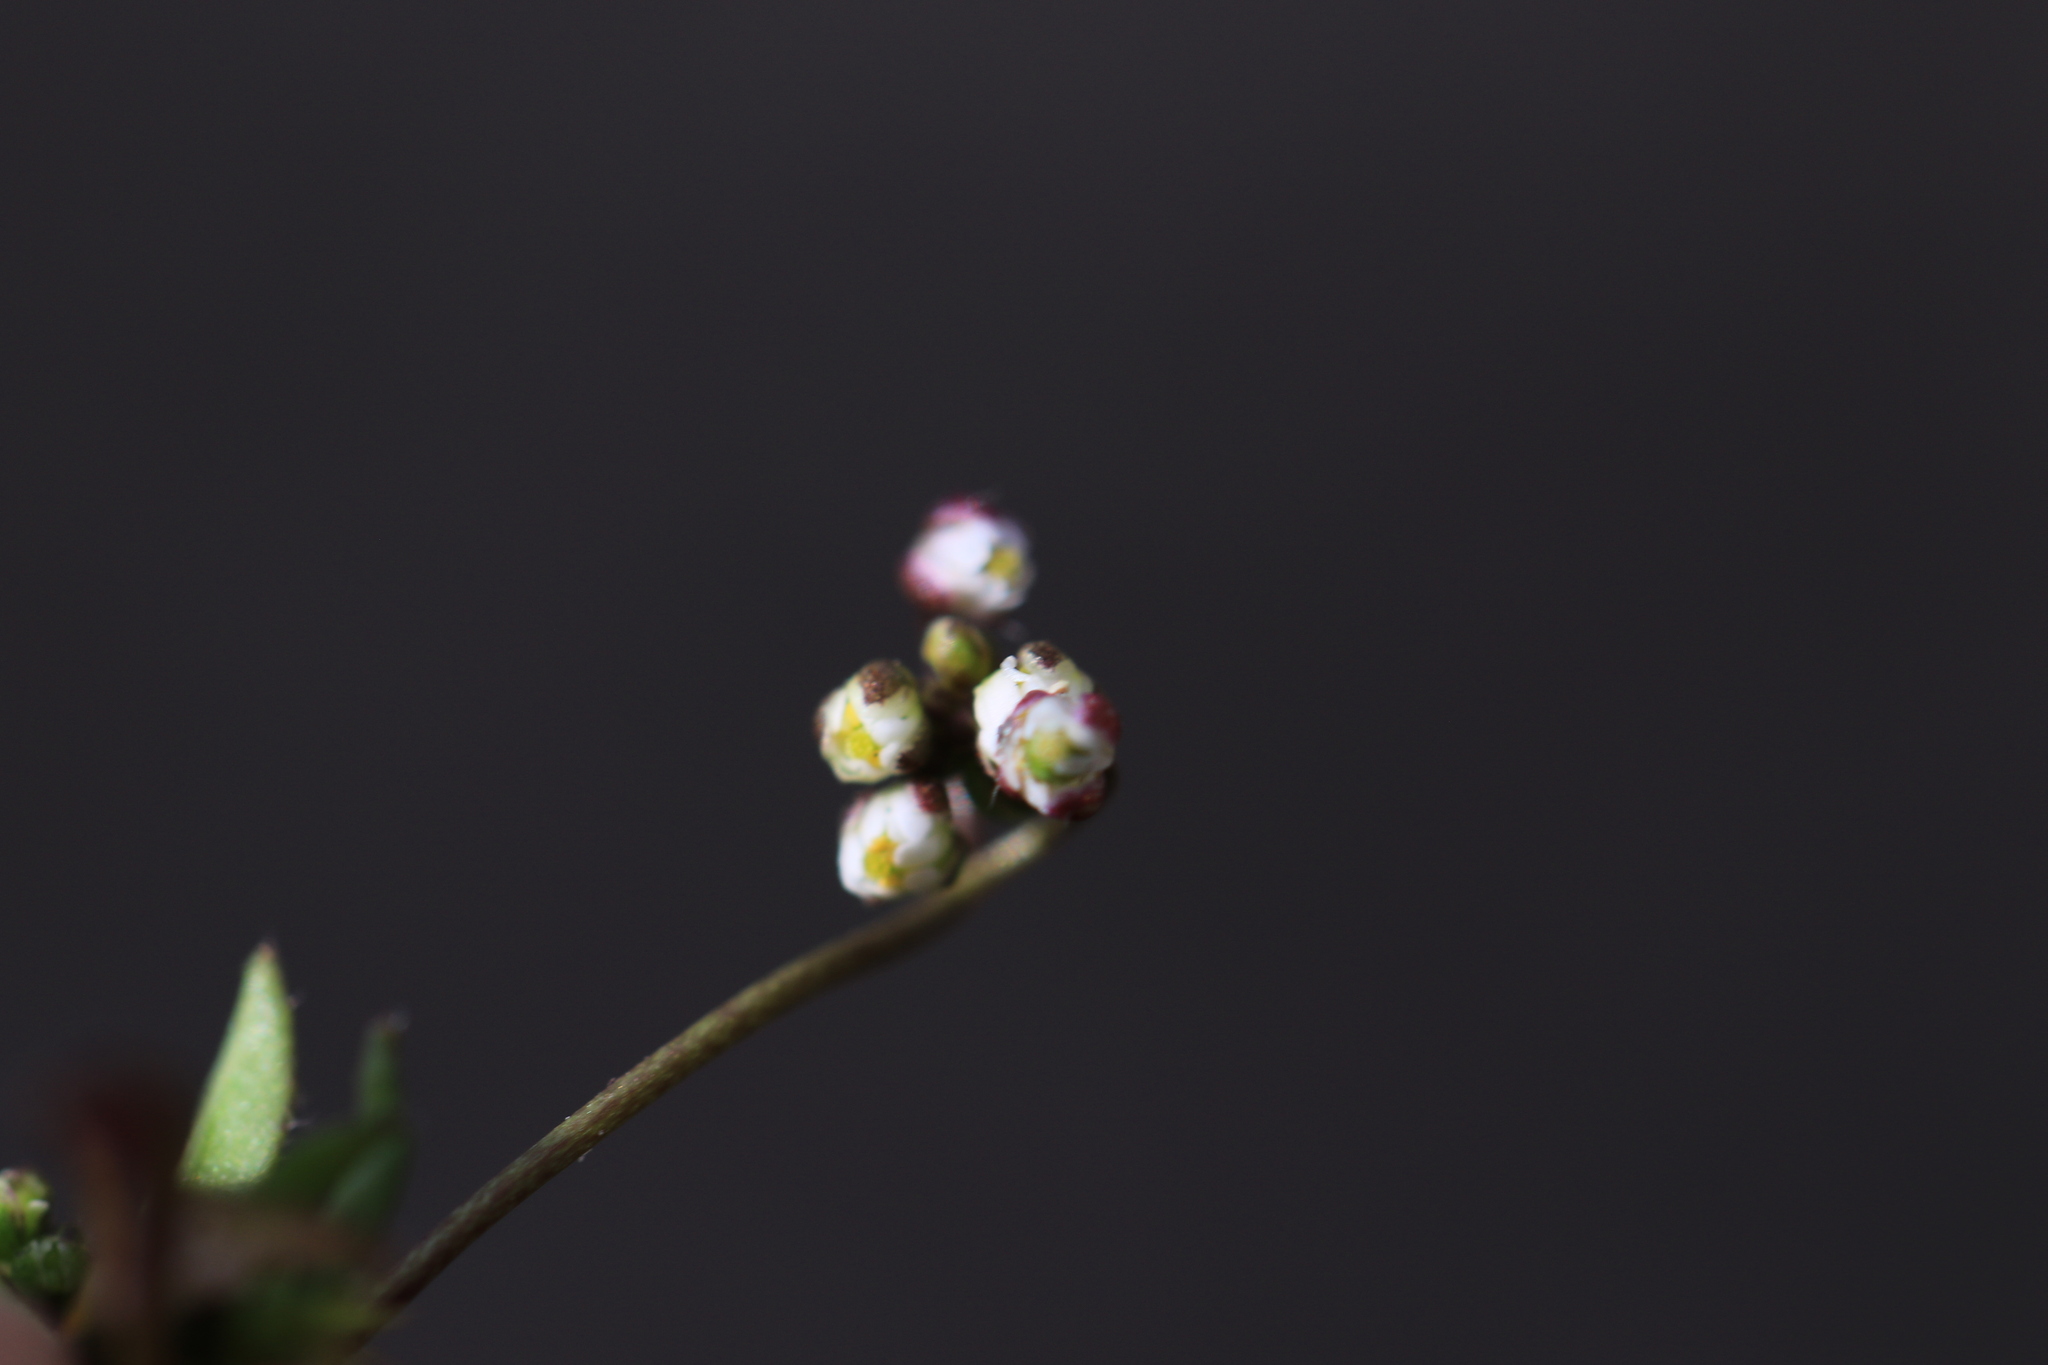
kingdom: Plantae
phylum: Tracheophyta
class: Magnoliopsida
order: Brassicales
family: Brassicaceae
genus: Draba
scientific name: Draba verna
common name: Spring draba
